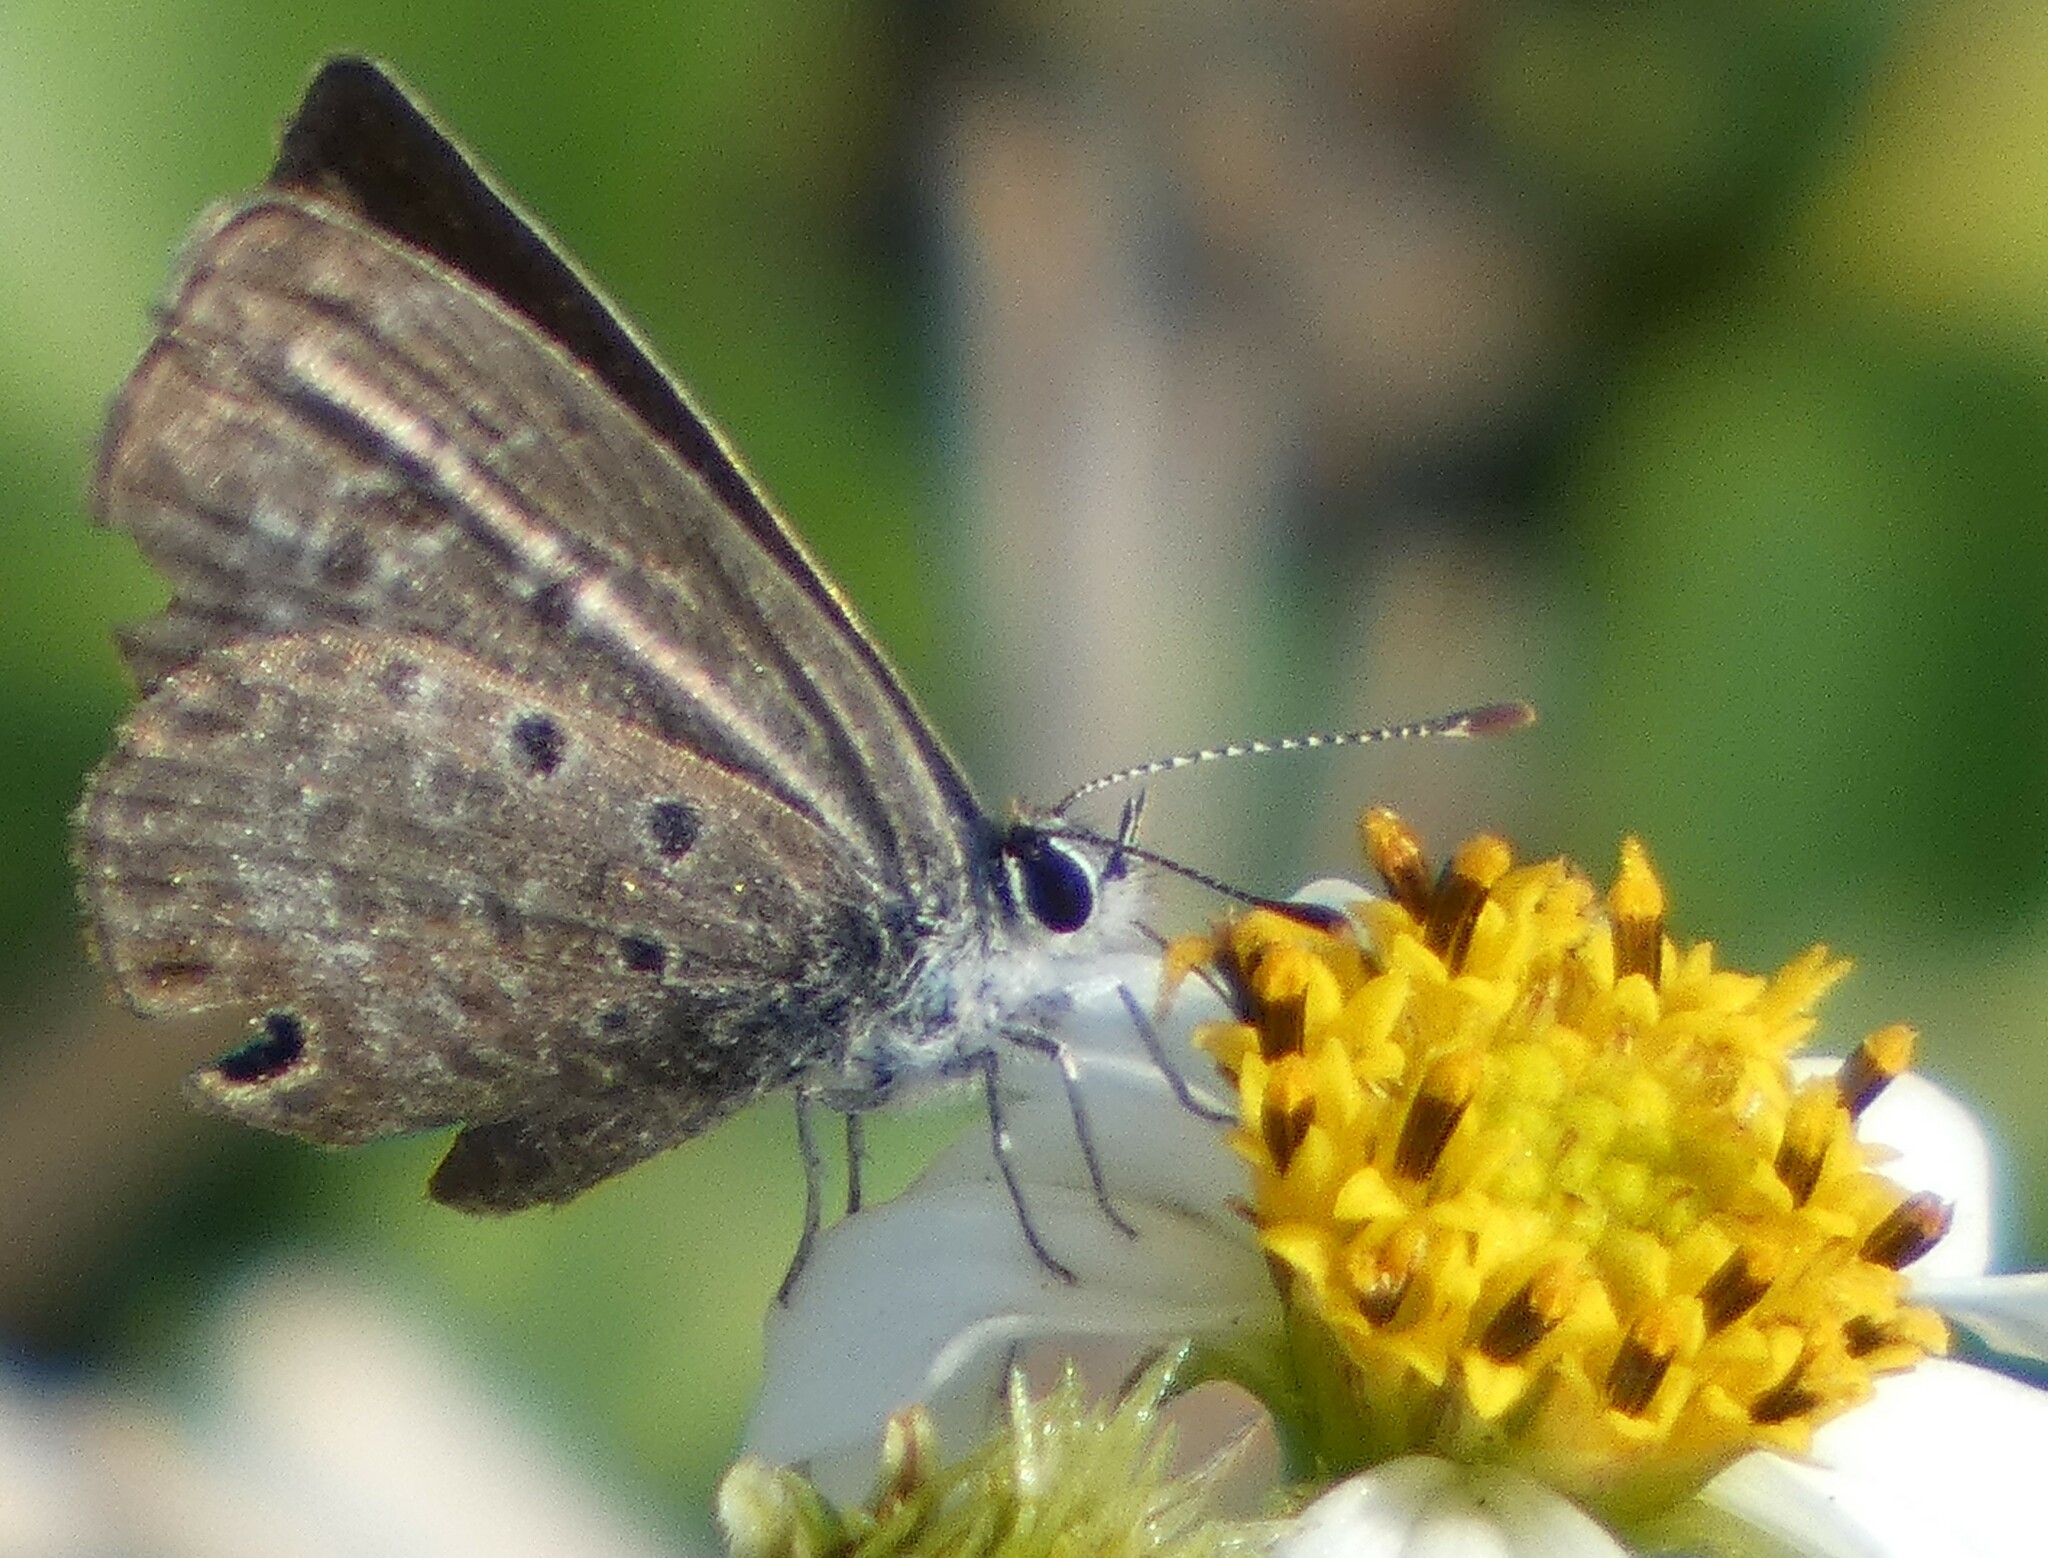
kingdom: Animalia
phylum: Arthropoda
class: Insecta
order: Lepidoptera
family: Lycaenidae
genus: Hemiargus
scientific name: Hemiargus ceraunus
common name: Ceraunus blue
